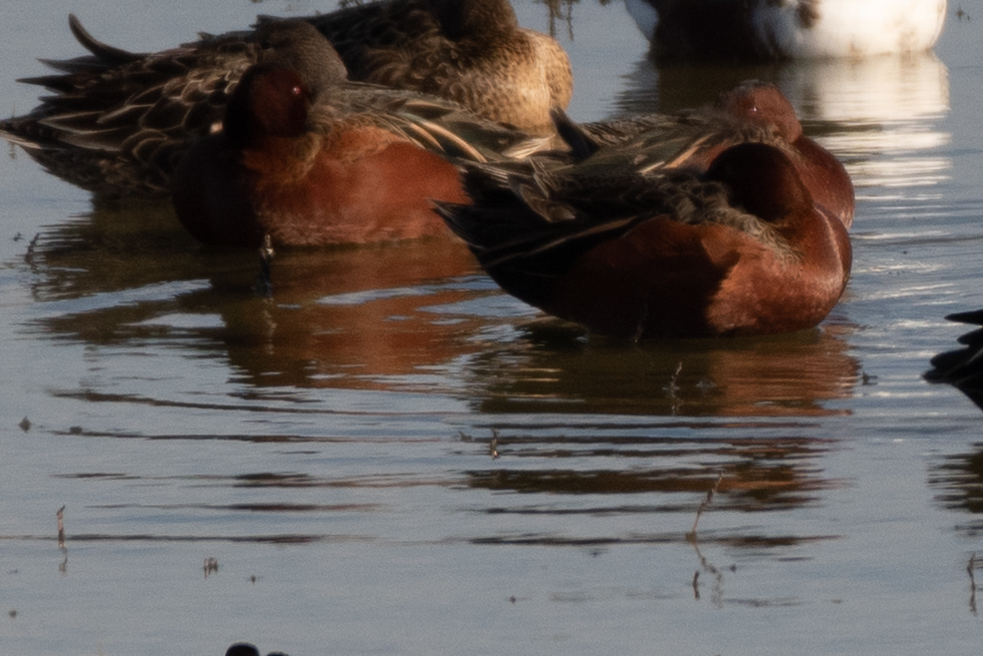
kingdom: Animalia
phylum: Chordata
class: Aves
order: Anseriformes
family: Anatidae
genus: Spatula
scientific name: Spatula cyanoptera
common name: Cinnamon teal
